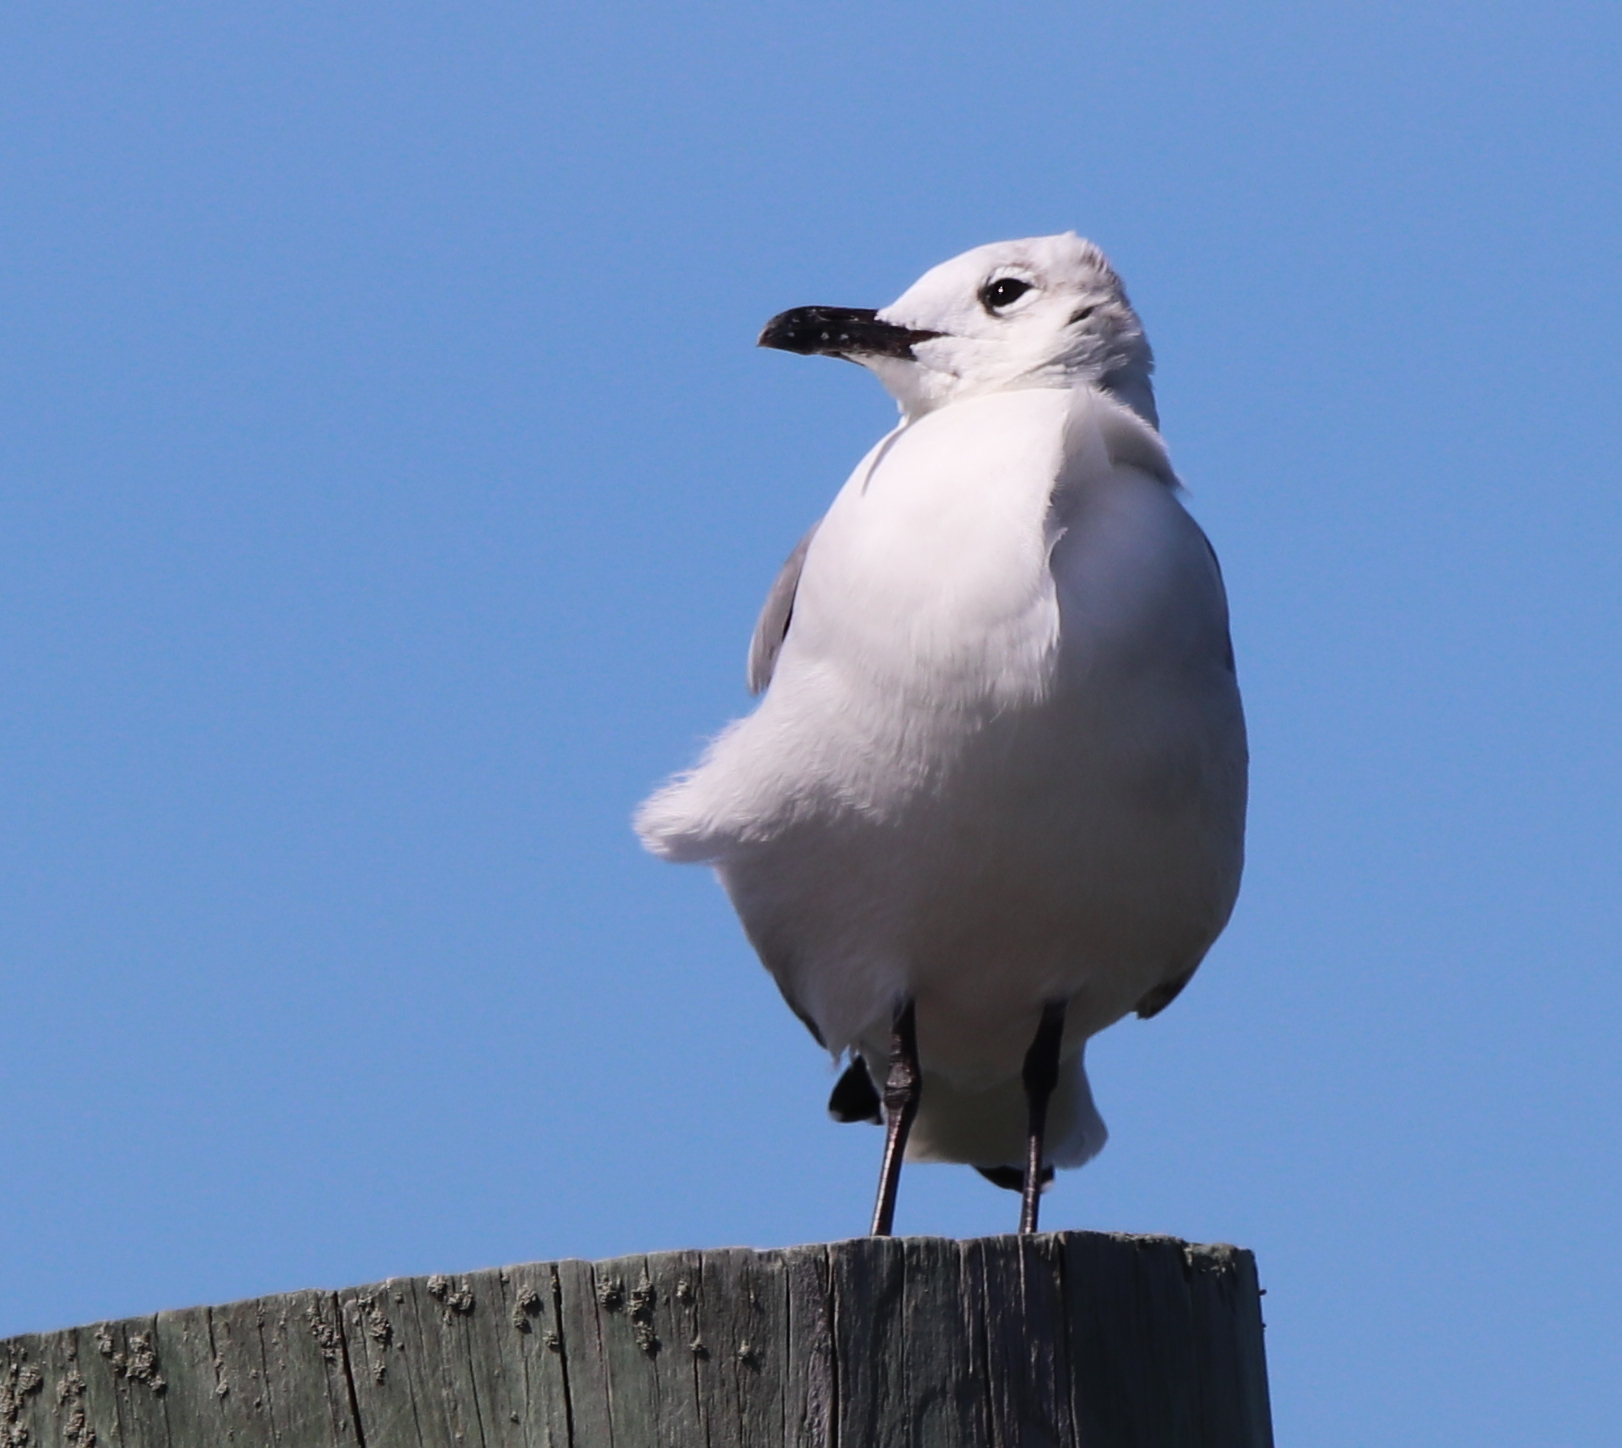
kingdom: Animalia
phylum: Chordata
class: Aves
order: Charadriiformes
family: Laridae
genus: Leucophaeus
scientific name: Leucophaeus atricilla
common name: Laughing gull
